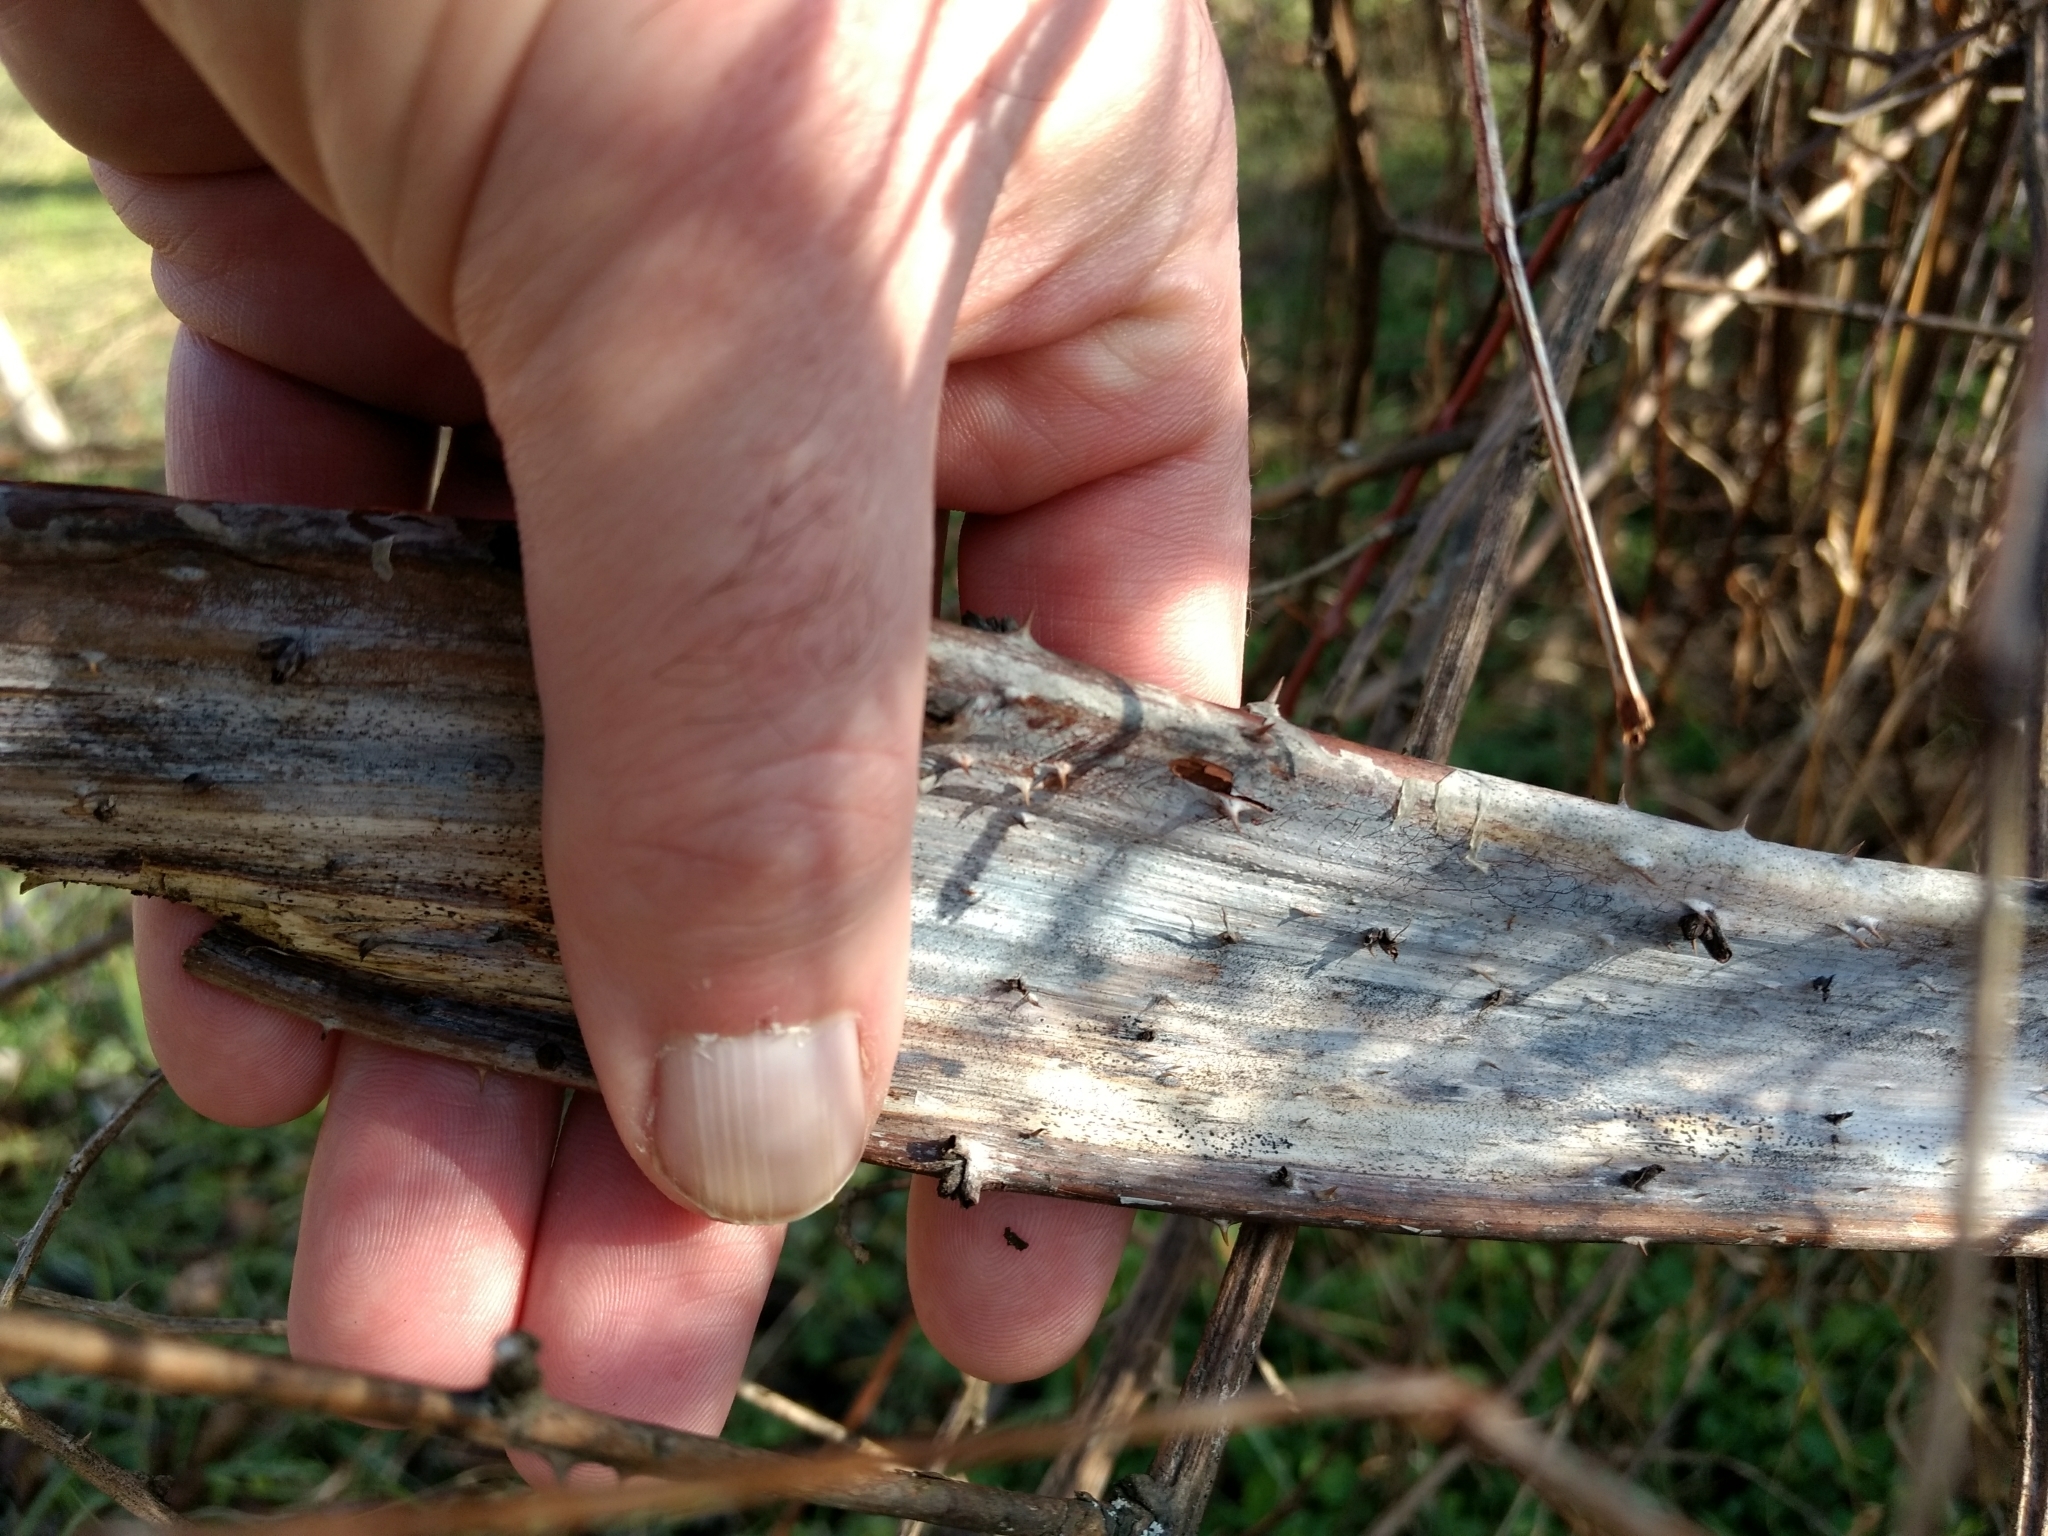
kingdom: Plantae
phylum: Tracheophyta
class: Magnoliopsida
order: Rosales
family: Rosaceae
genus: Rubus
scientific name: Rubus occidentalis
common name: Black raspberry
